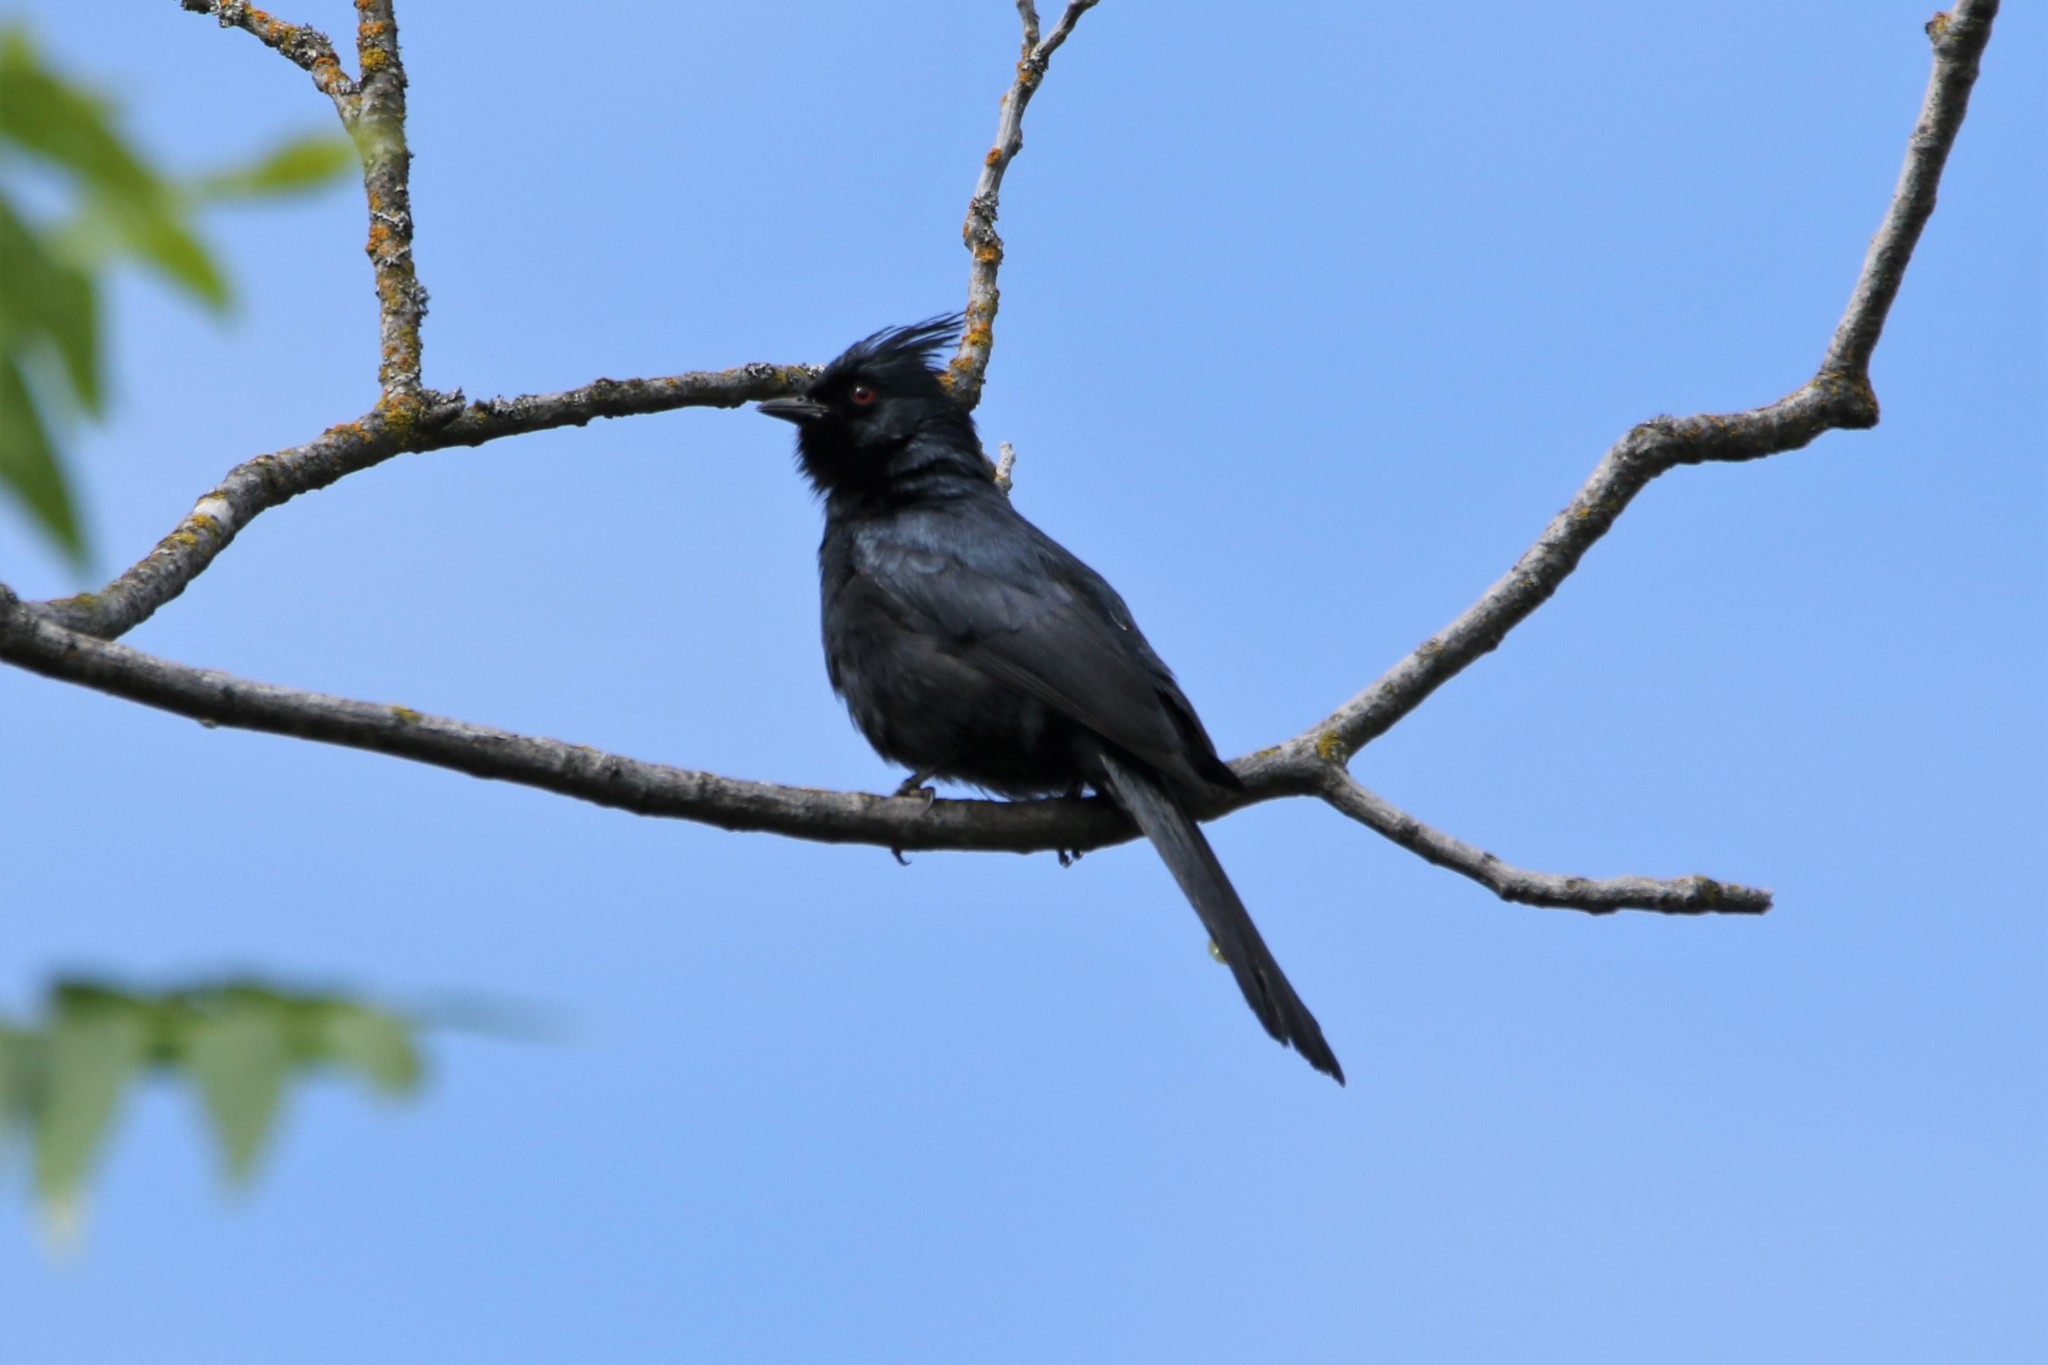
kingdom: Animalia
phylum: Chordata
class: Aves
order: Passeriformes
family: Ptilogonatidae
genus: Phainopepla
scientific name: Phainopepla nitens
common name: Phainopepla
